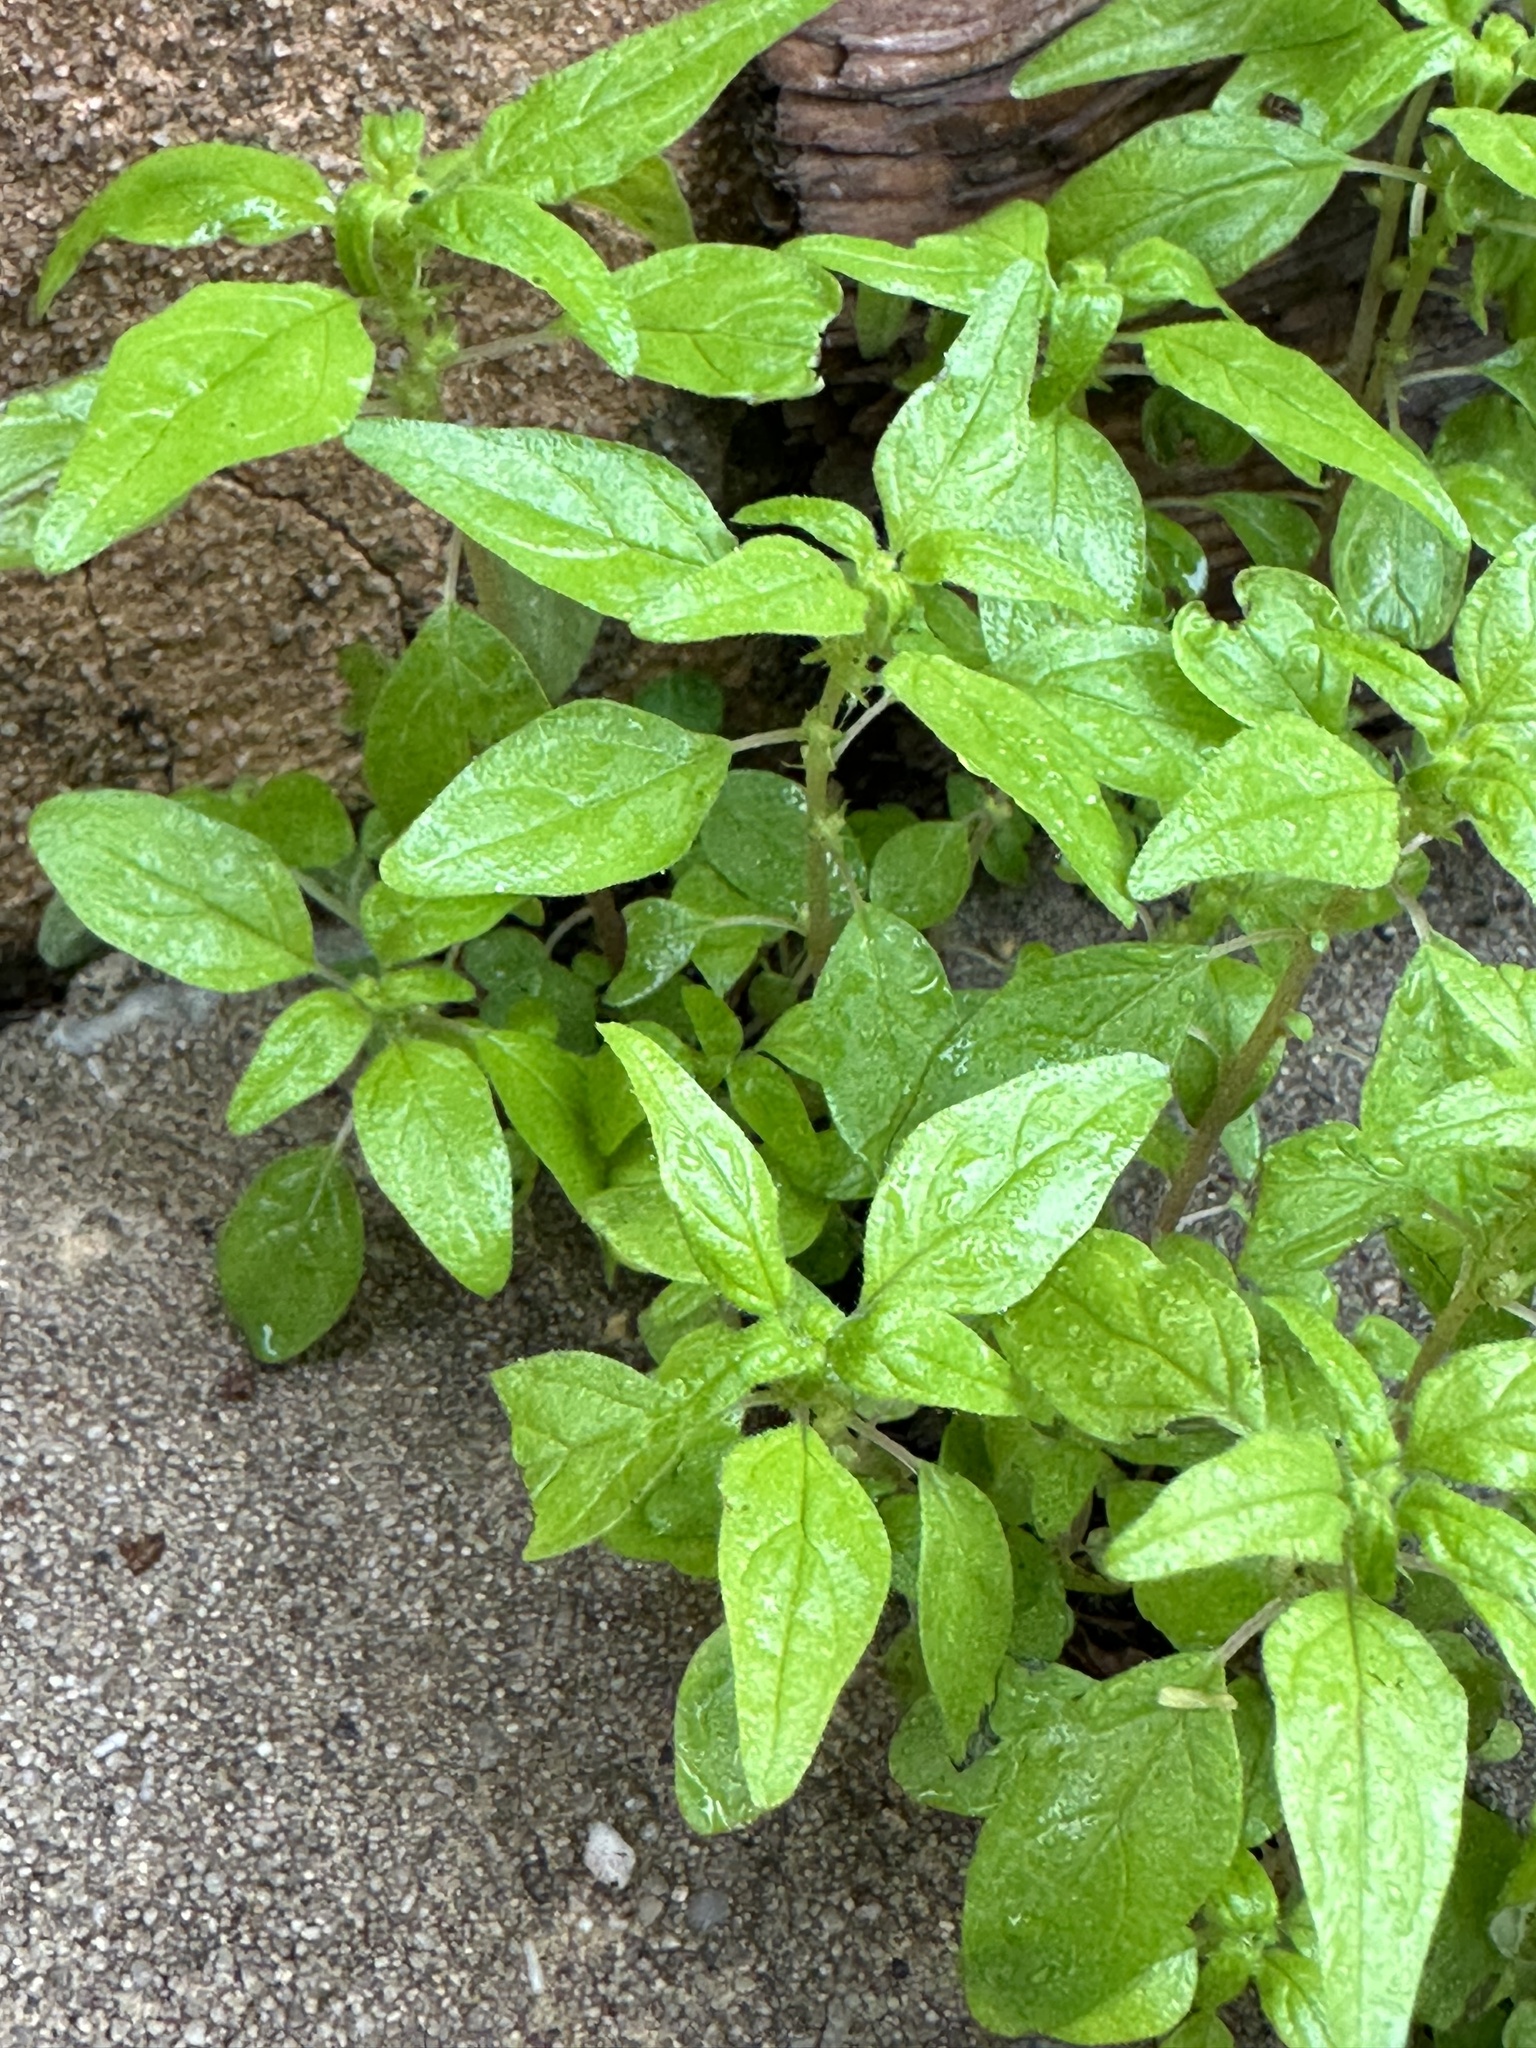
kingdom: Plantae
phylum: Tracheophyta
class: Magnoliopsida
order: Rosales
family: Urticaceae
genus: Parietaria
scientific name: Parietaria pensylvanica
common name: Pennsylvania pellitory
